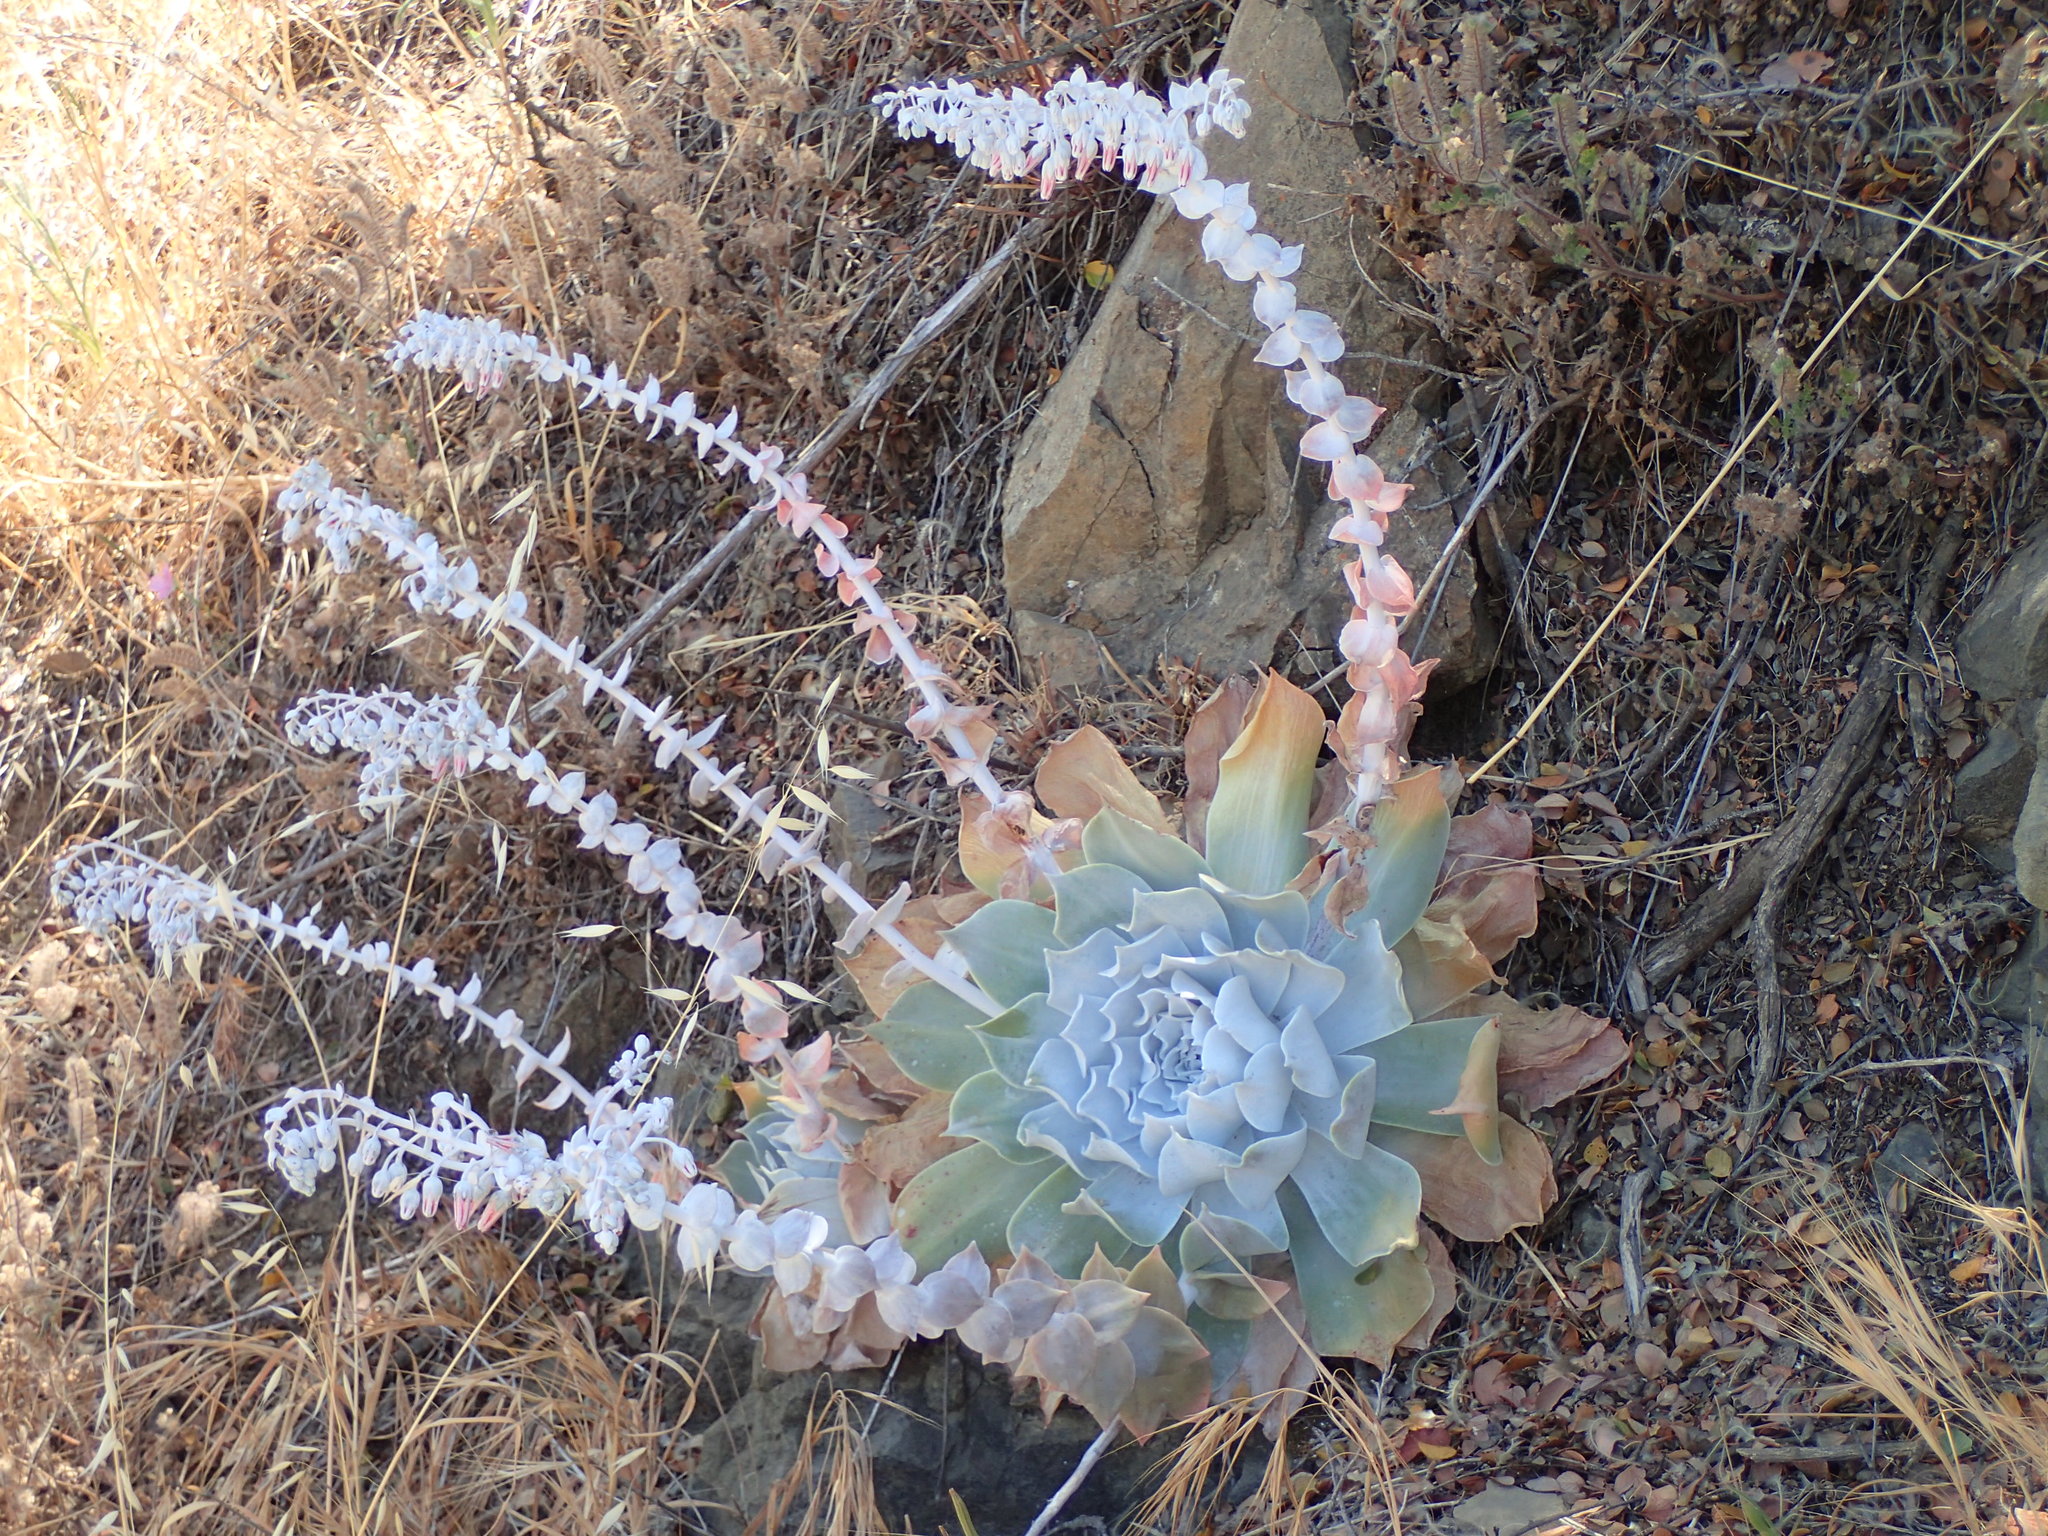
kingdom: Plantae
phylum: Tracheophyta
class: Magnoliopsida
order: Saxifragales
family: Crassulaceae
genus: Dudleya
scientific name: Dudleya pulverulenta
